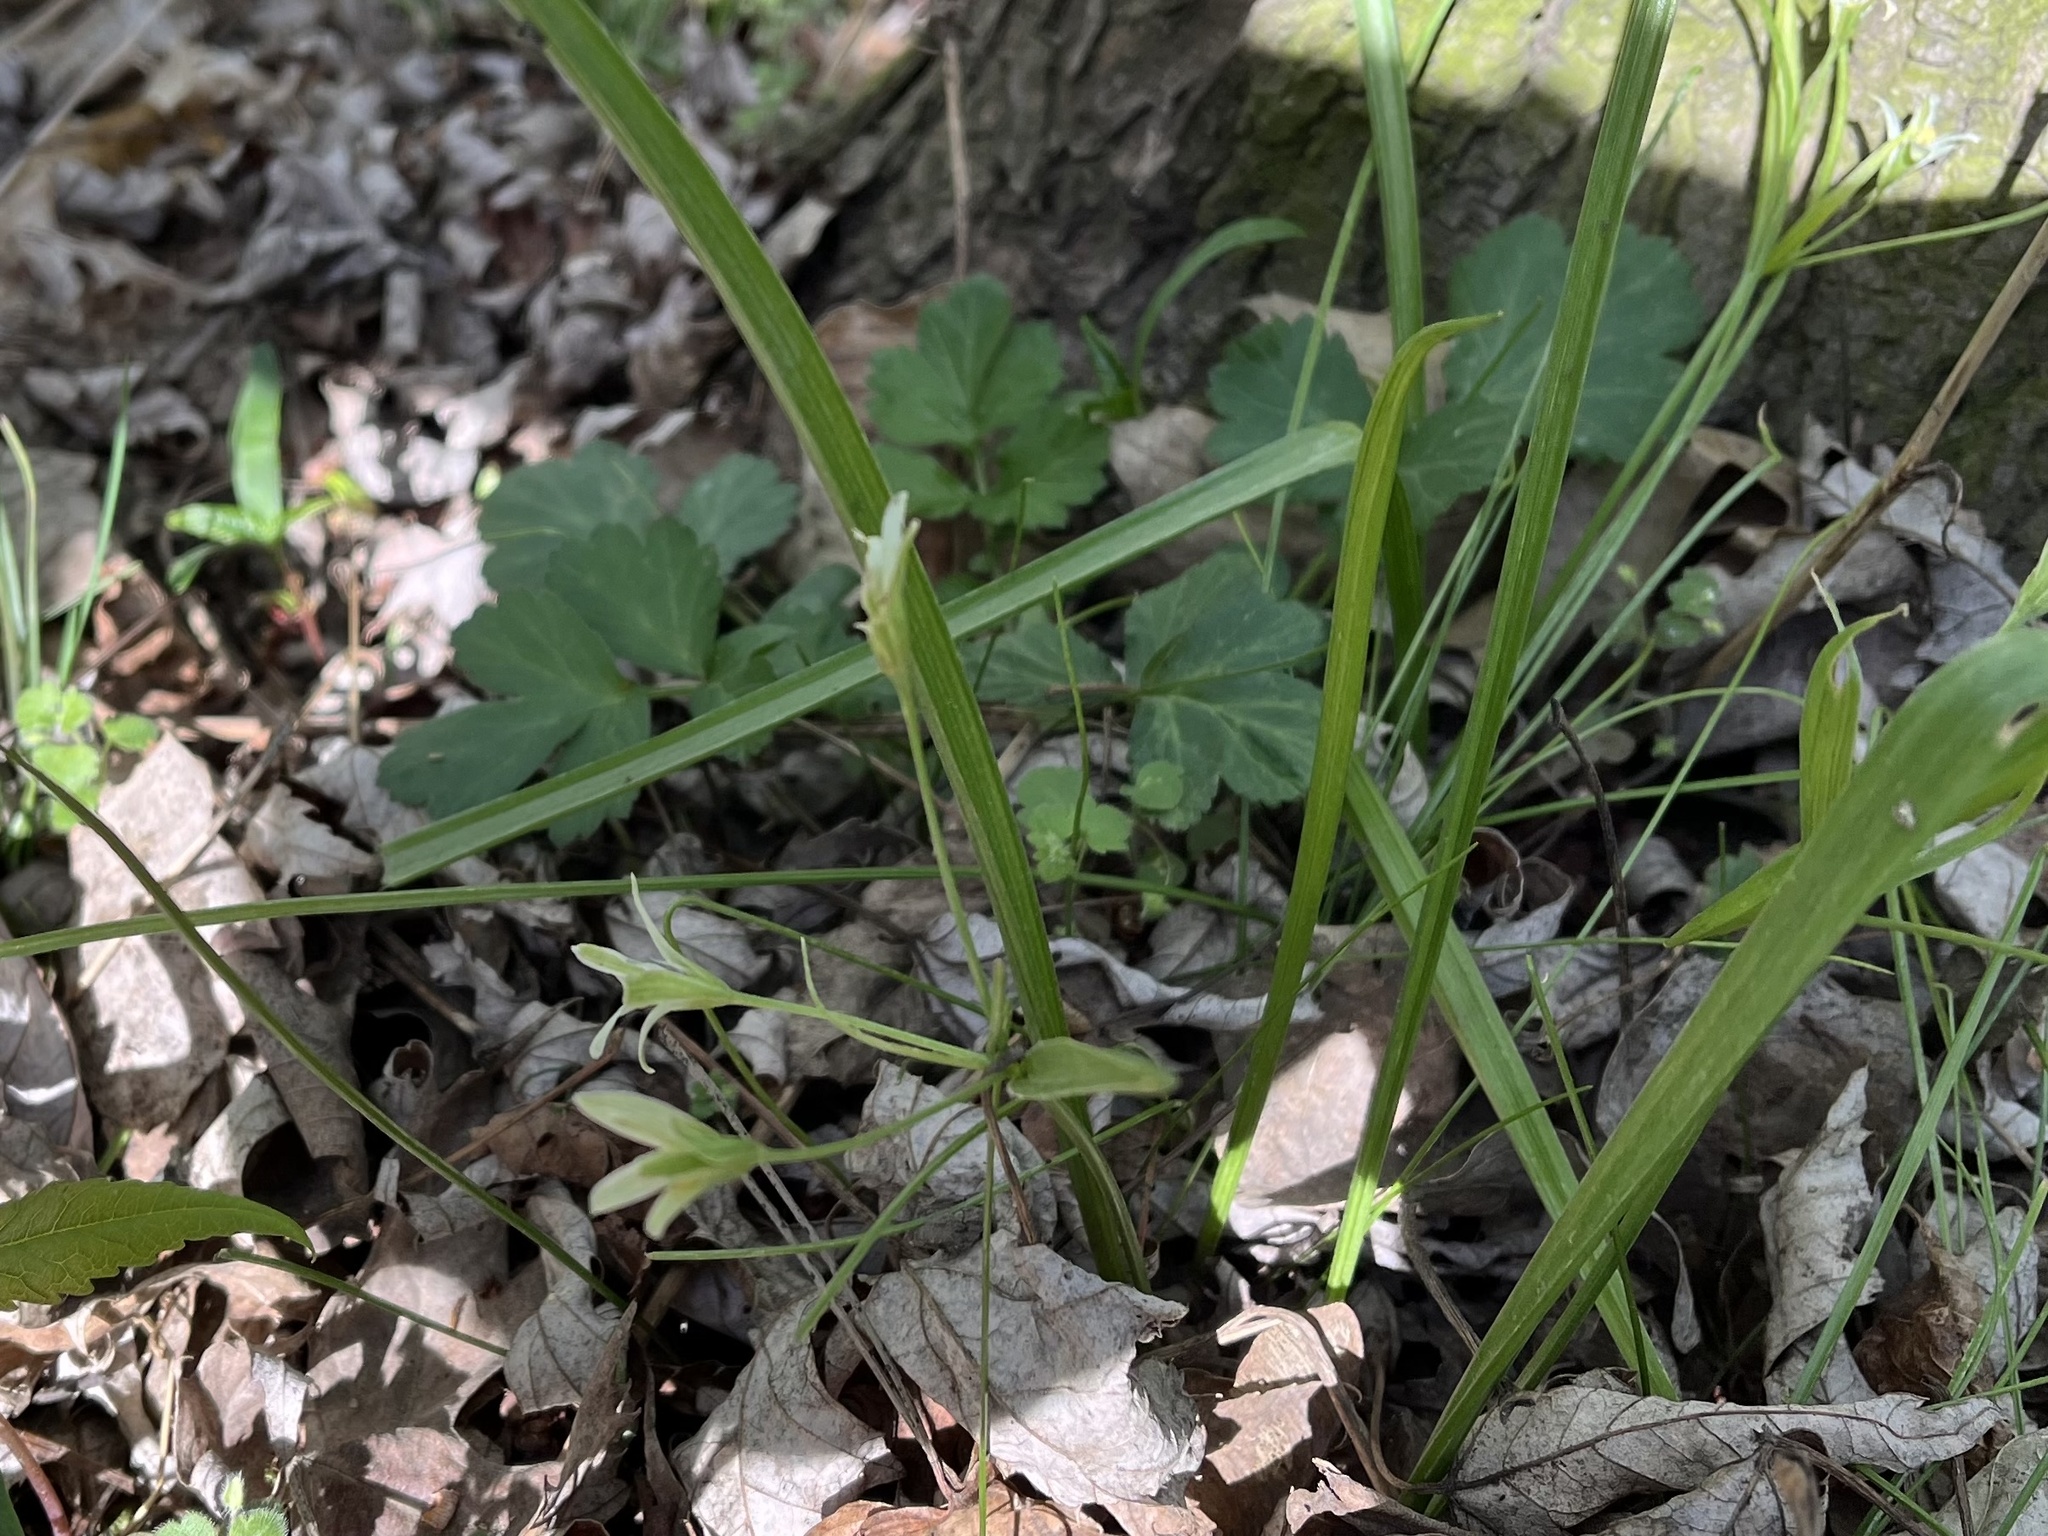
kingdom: Plantae
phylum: Tracheophyta
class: Liliopsida
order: Liliales
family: Liliaceae
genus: Gagea
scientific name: Gagea lutea
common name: Yellow star-of-bethlehem
